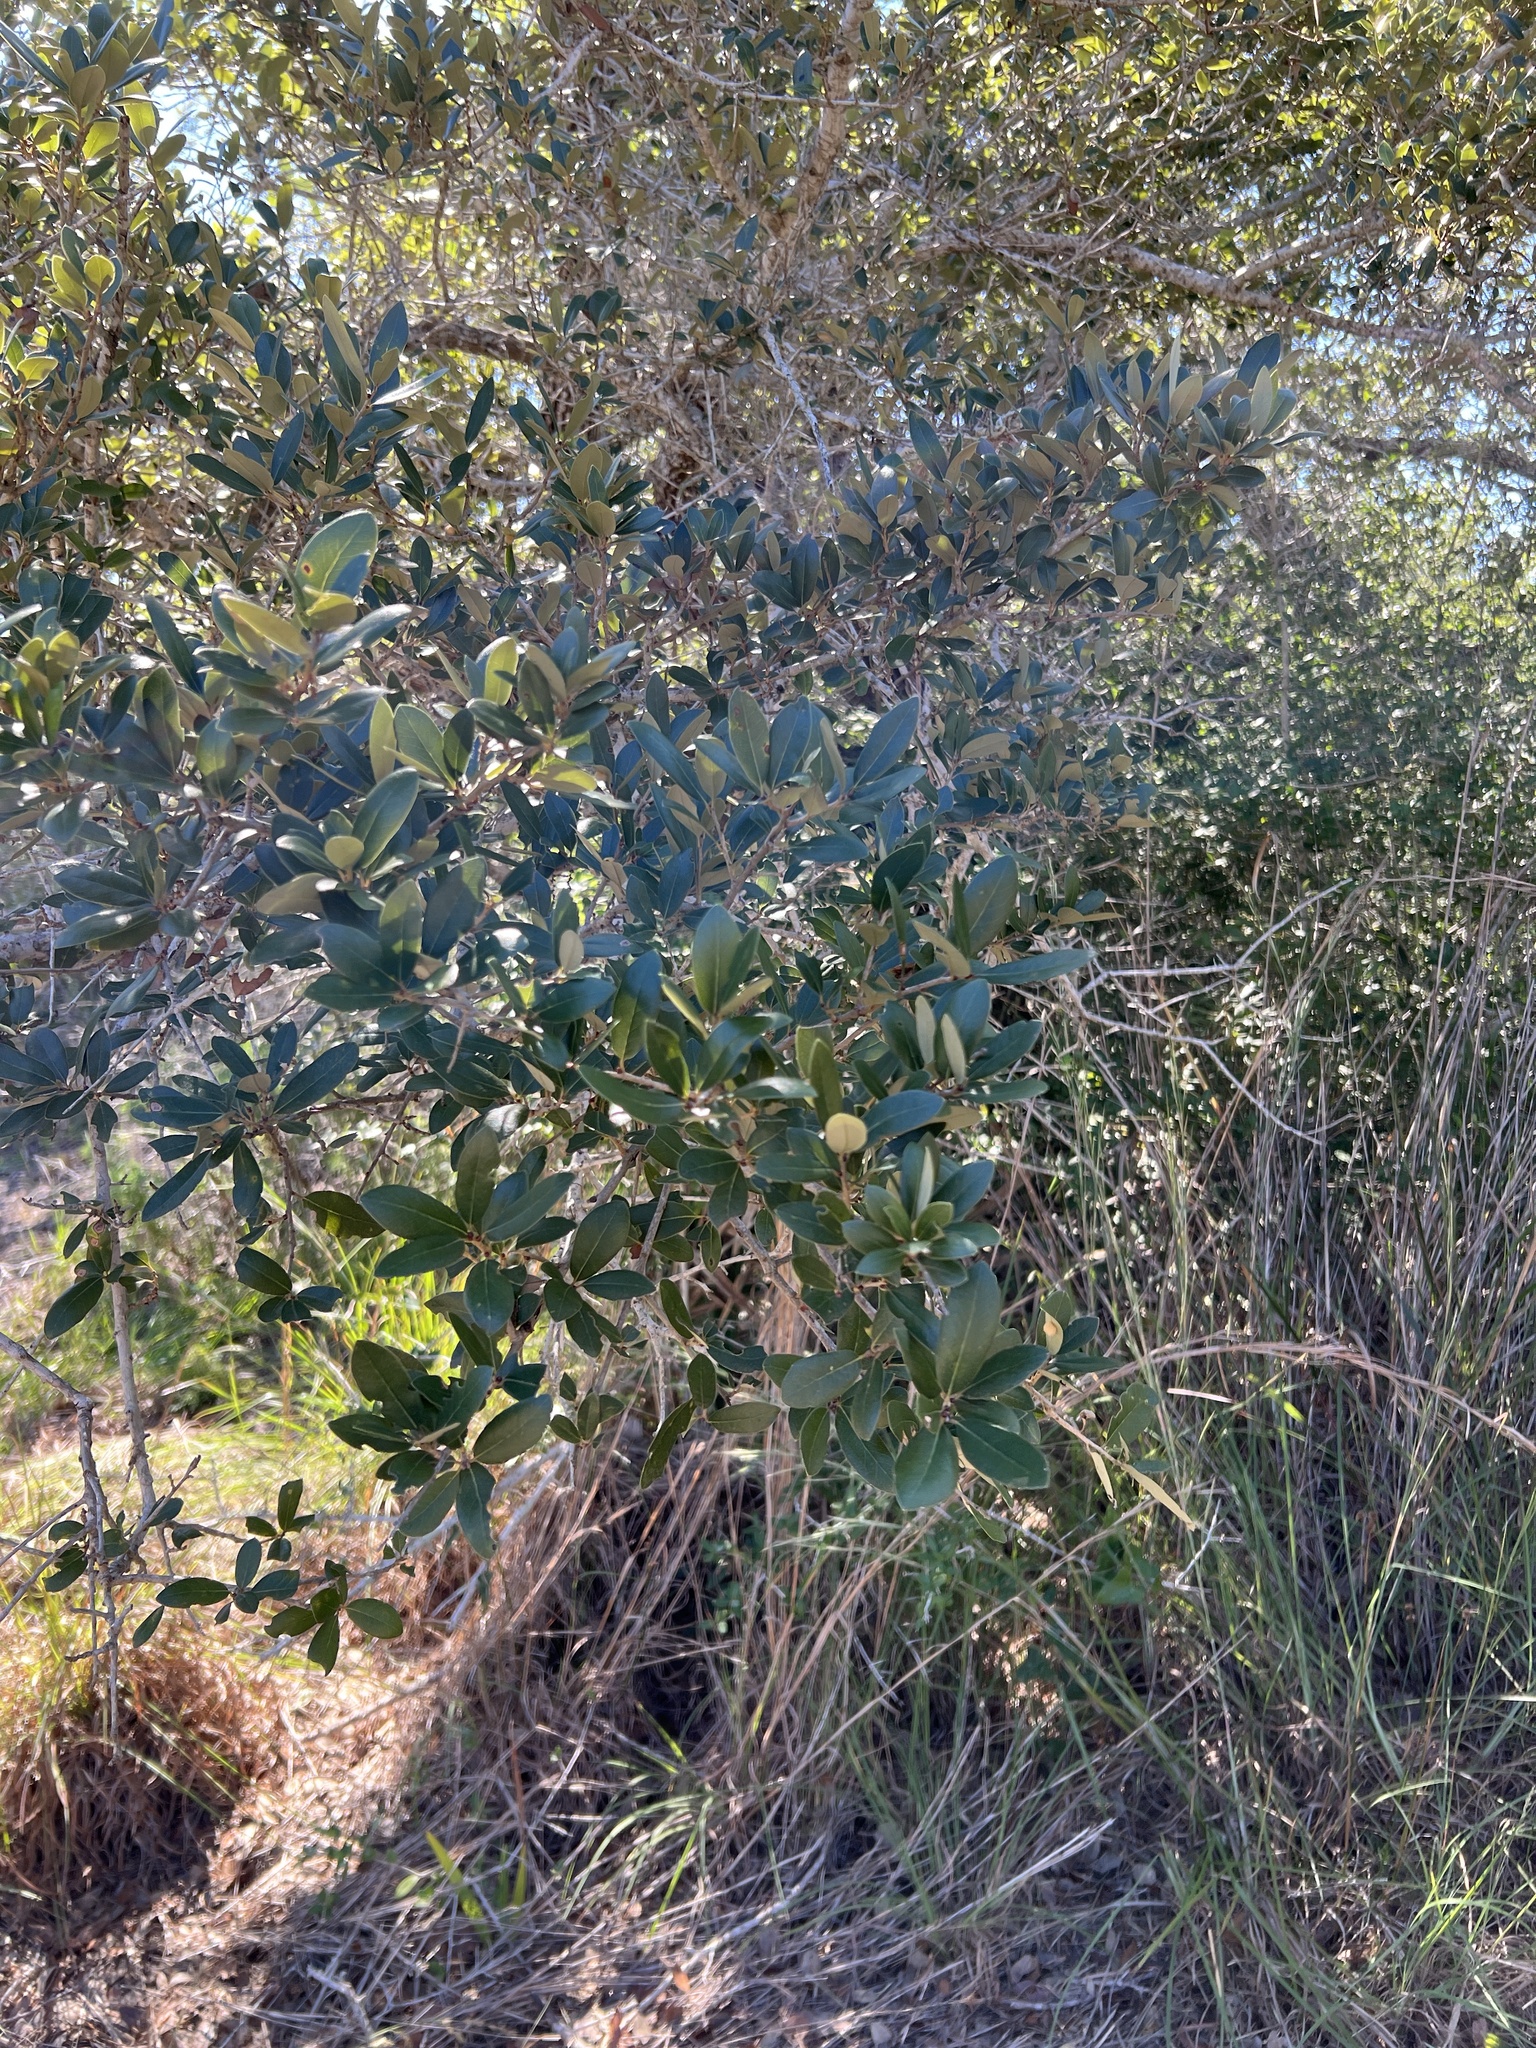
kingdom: Plantae
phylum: Tracheophyta
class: Magnoliopsida
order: Fagales
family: Fagaceae
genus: Quercus
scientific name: Quercus virginiana
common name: Southern live oak
